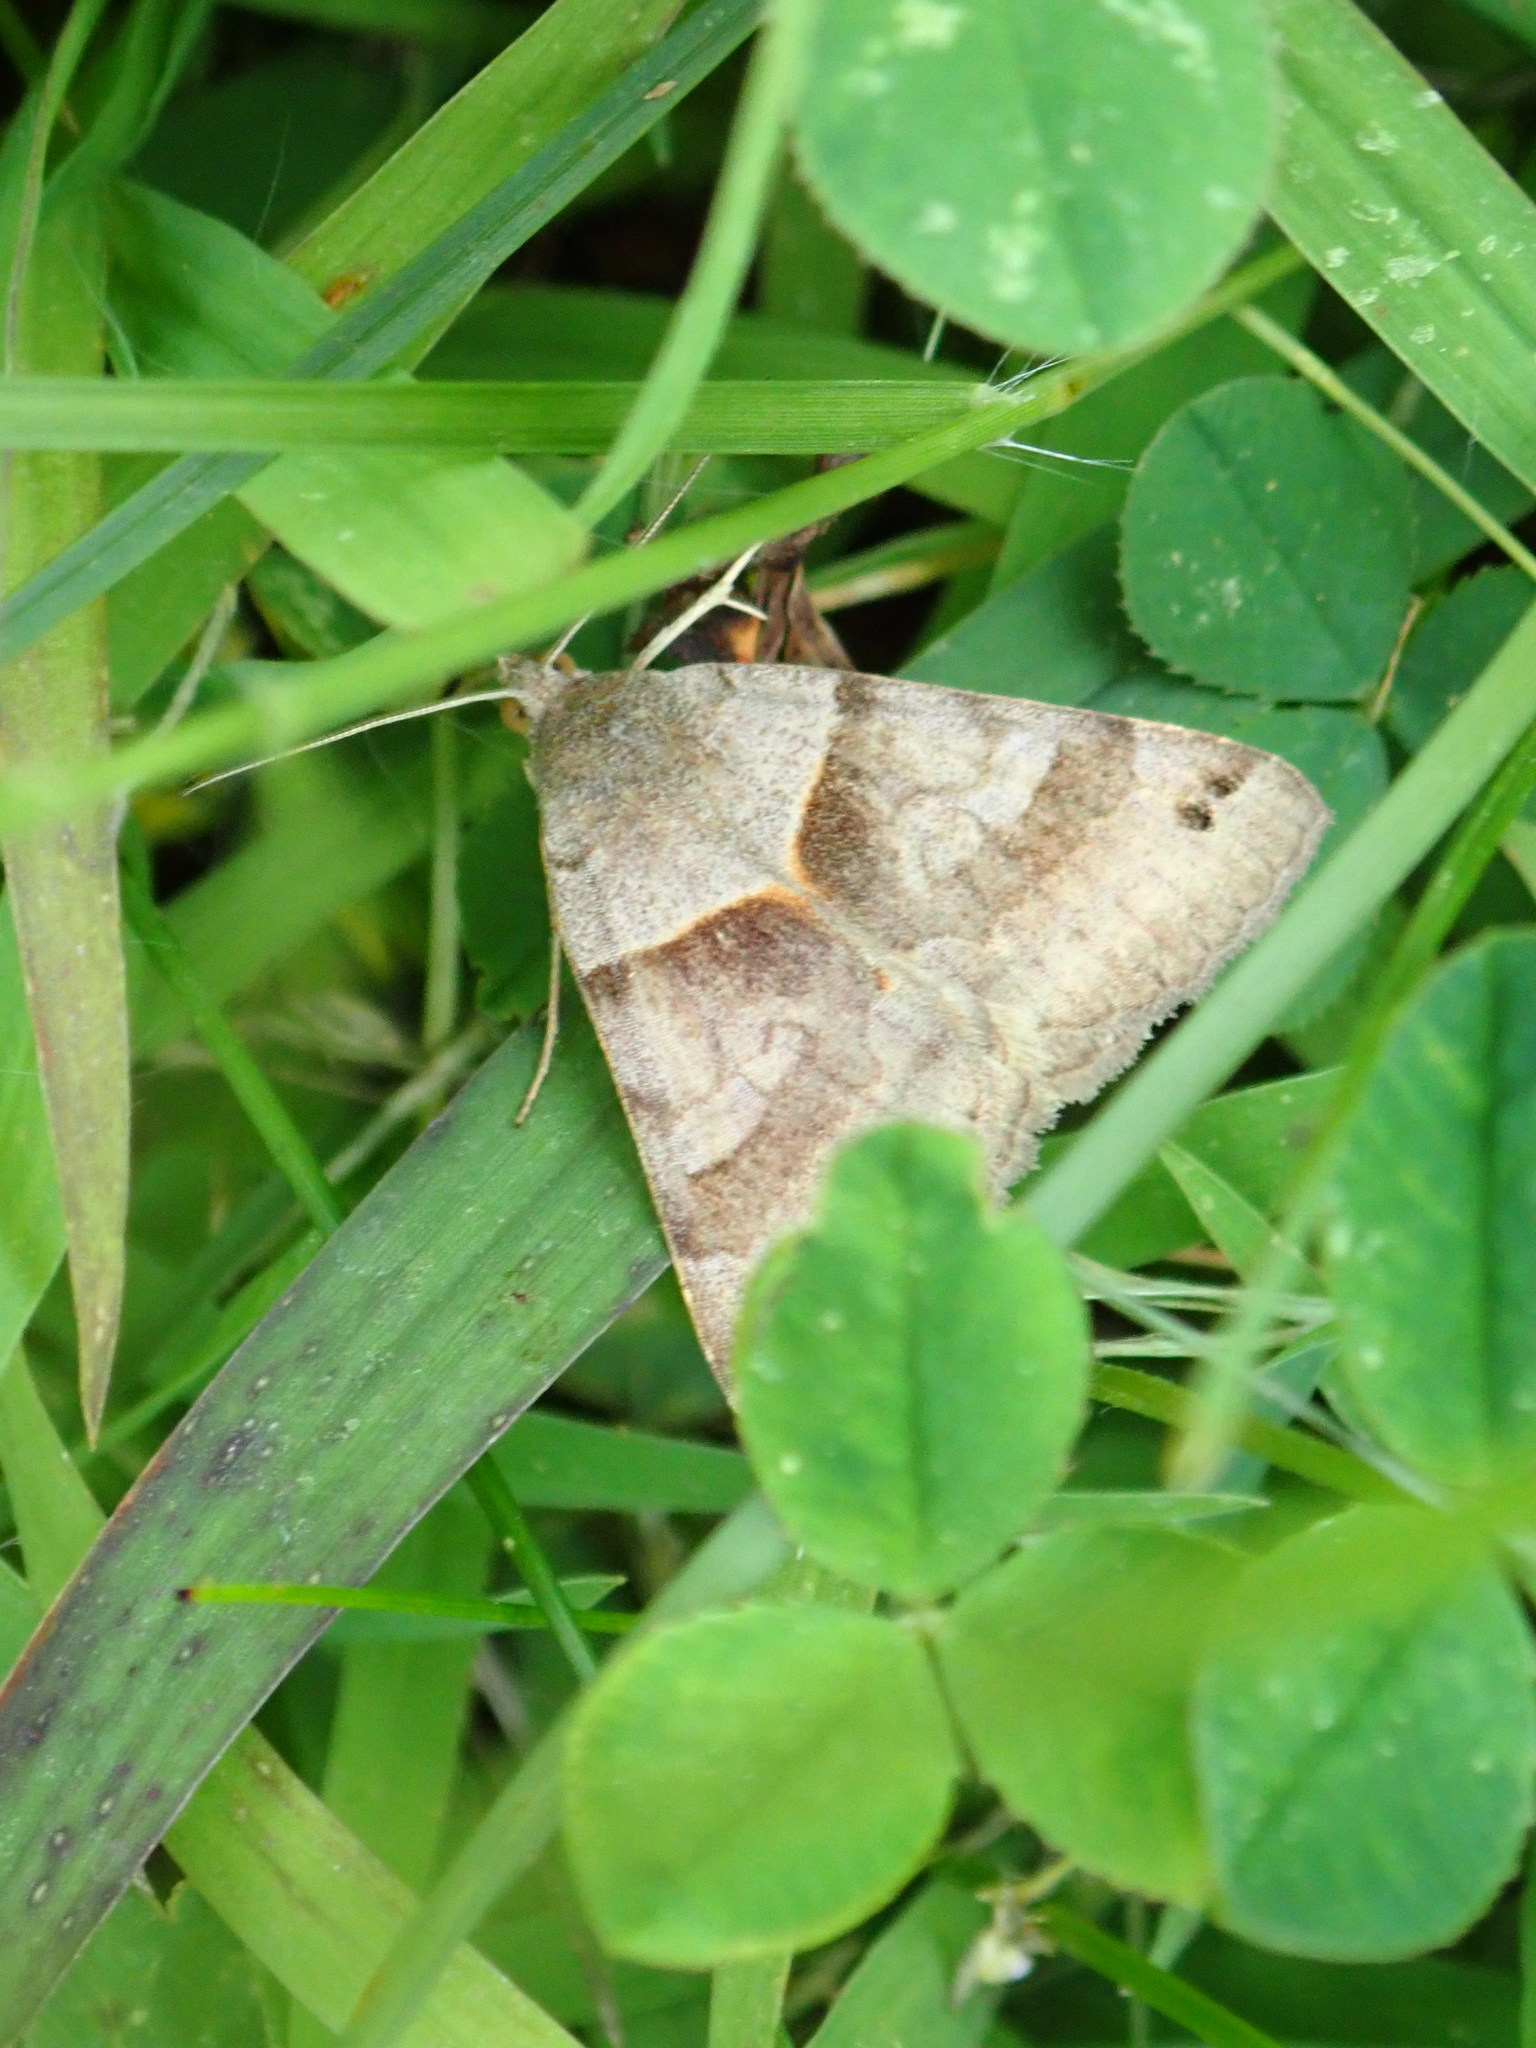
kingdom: Animalia
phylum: Arthropoda
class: Insecta
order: Lepidoptera
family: Erebidae
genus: Caenurgina
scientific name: Caenurgina crassiuscula
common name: Double-barred
